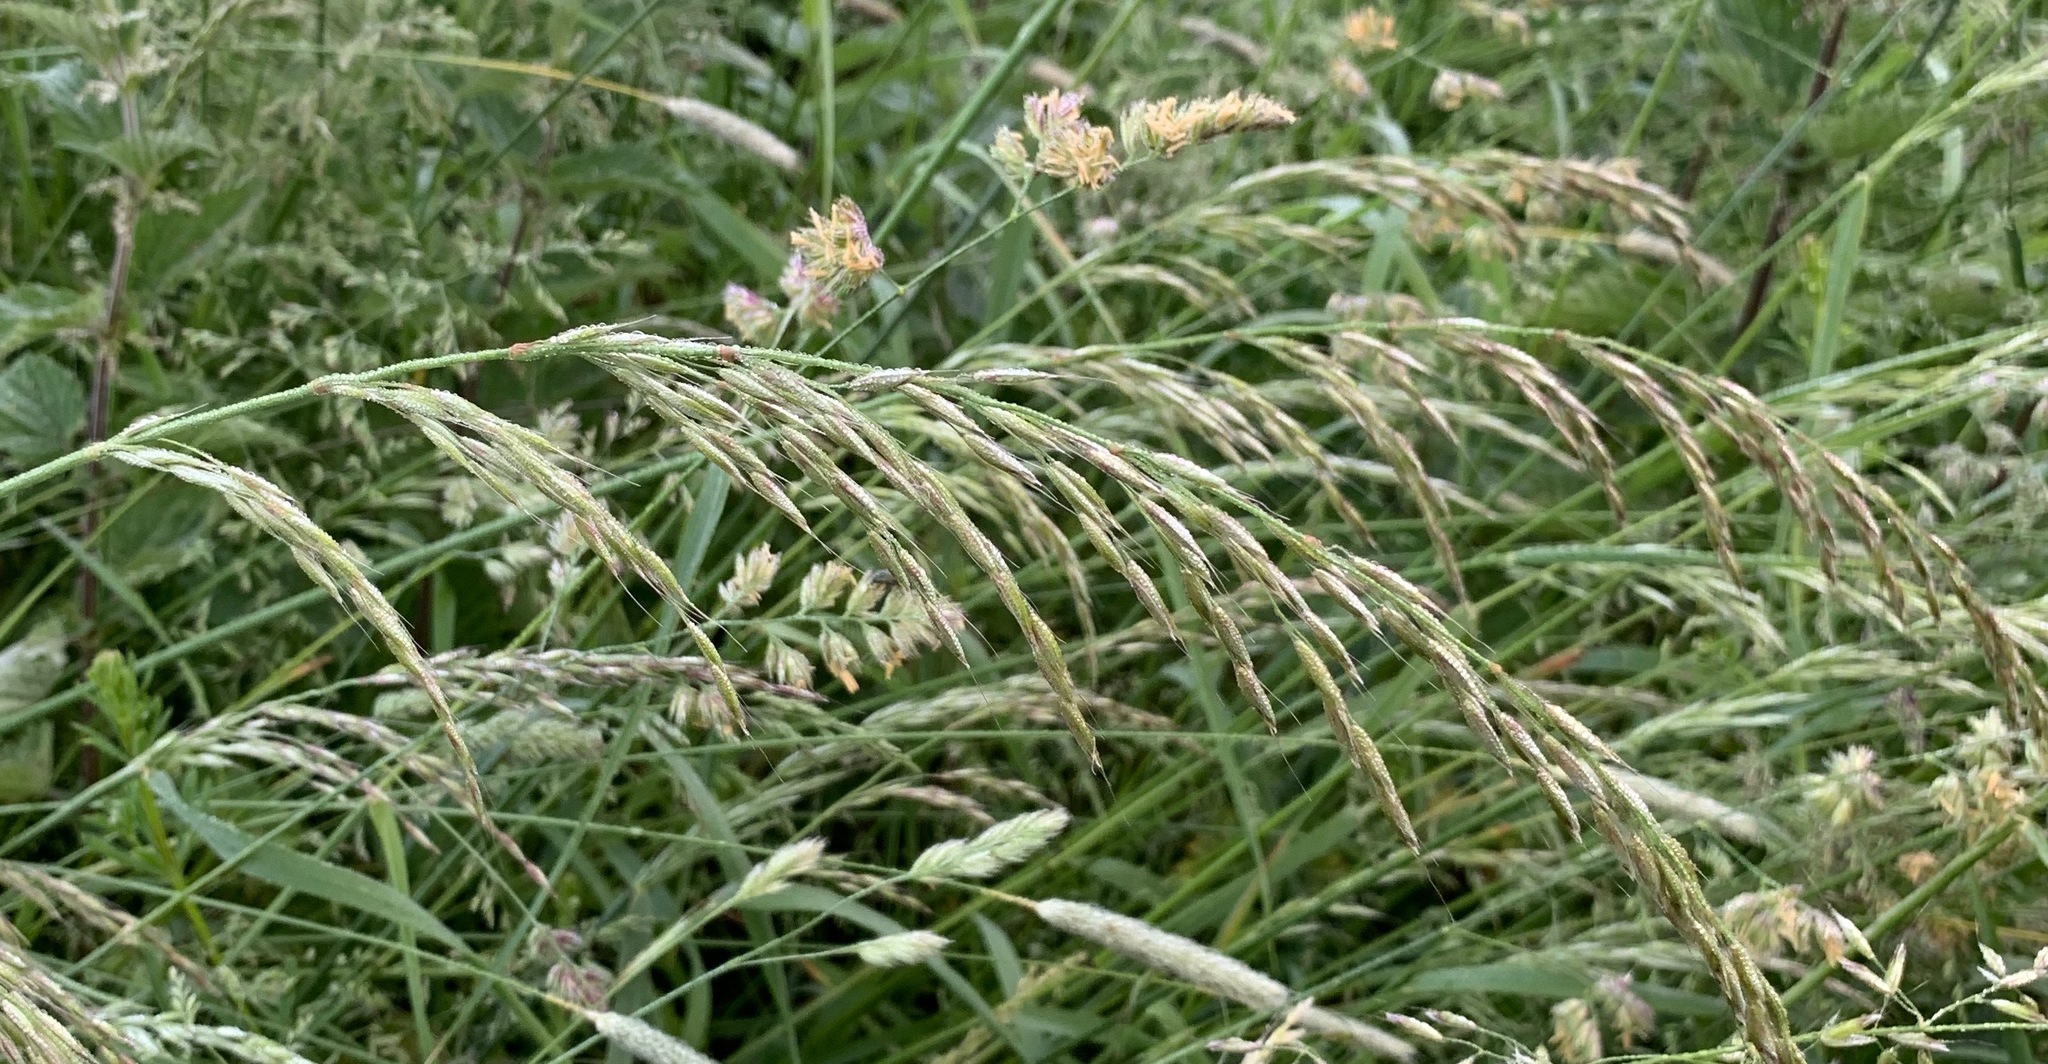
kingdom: Plantae
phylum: Tracheophyta
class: Liliopsida
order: Poales
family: Poaceae
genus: Arrhenatherum
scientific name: Arrhenatherum elatius
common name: Tall oatgrass
